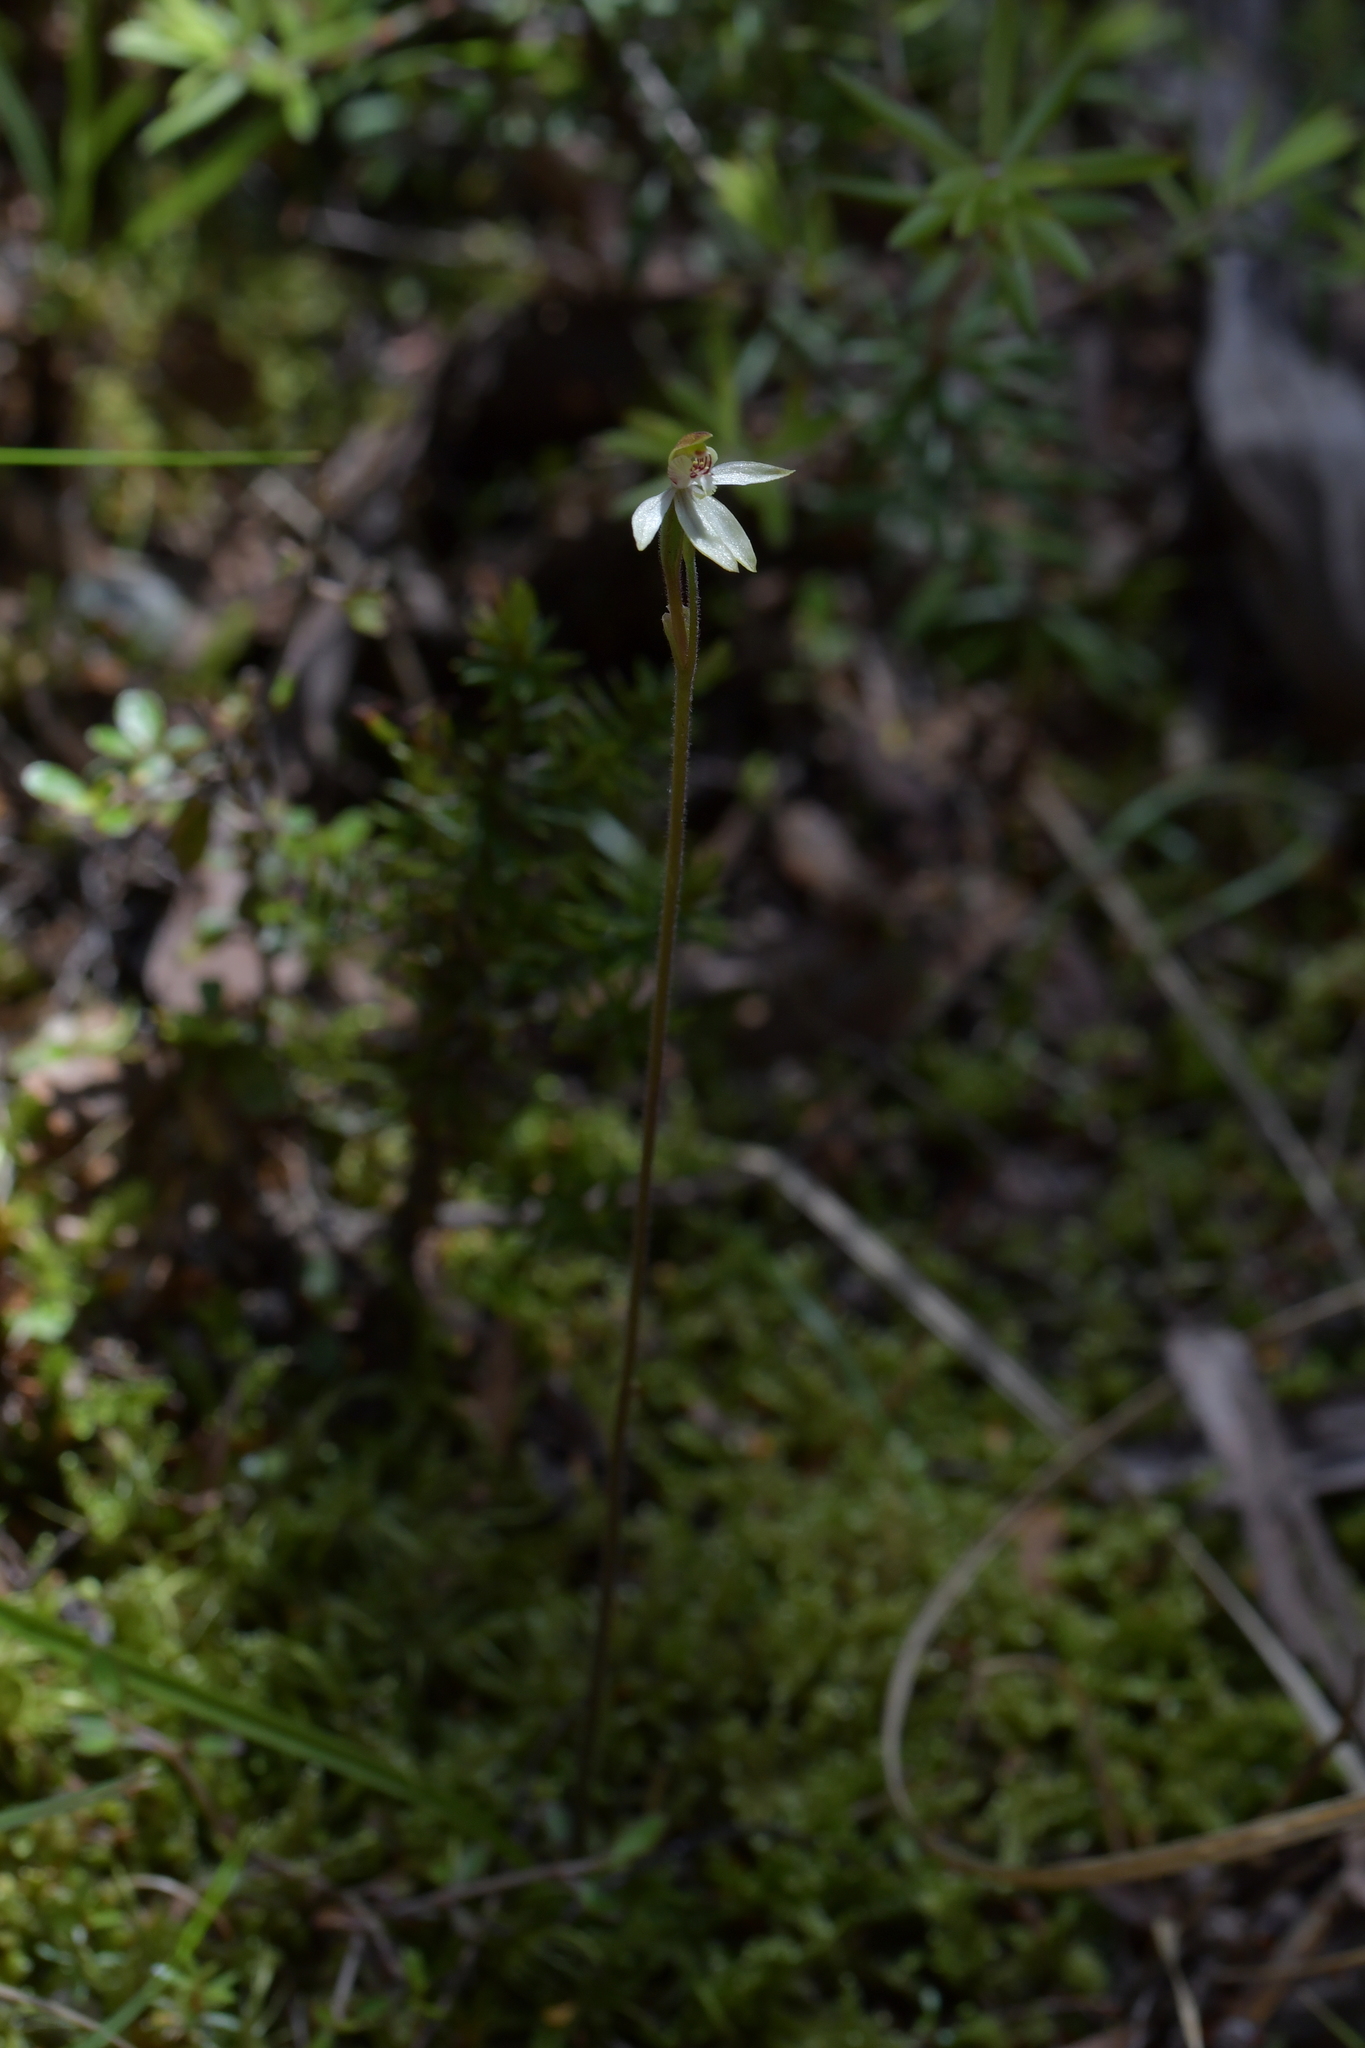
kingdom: Plantae
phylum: Tracheophyta
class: Liliopsida
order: Asparagales
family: Orchidaceae
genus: Caladenia
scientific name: Caladenia chlorostyla
